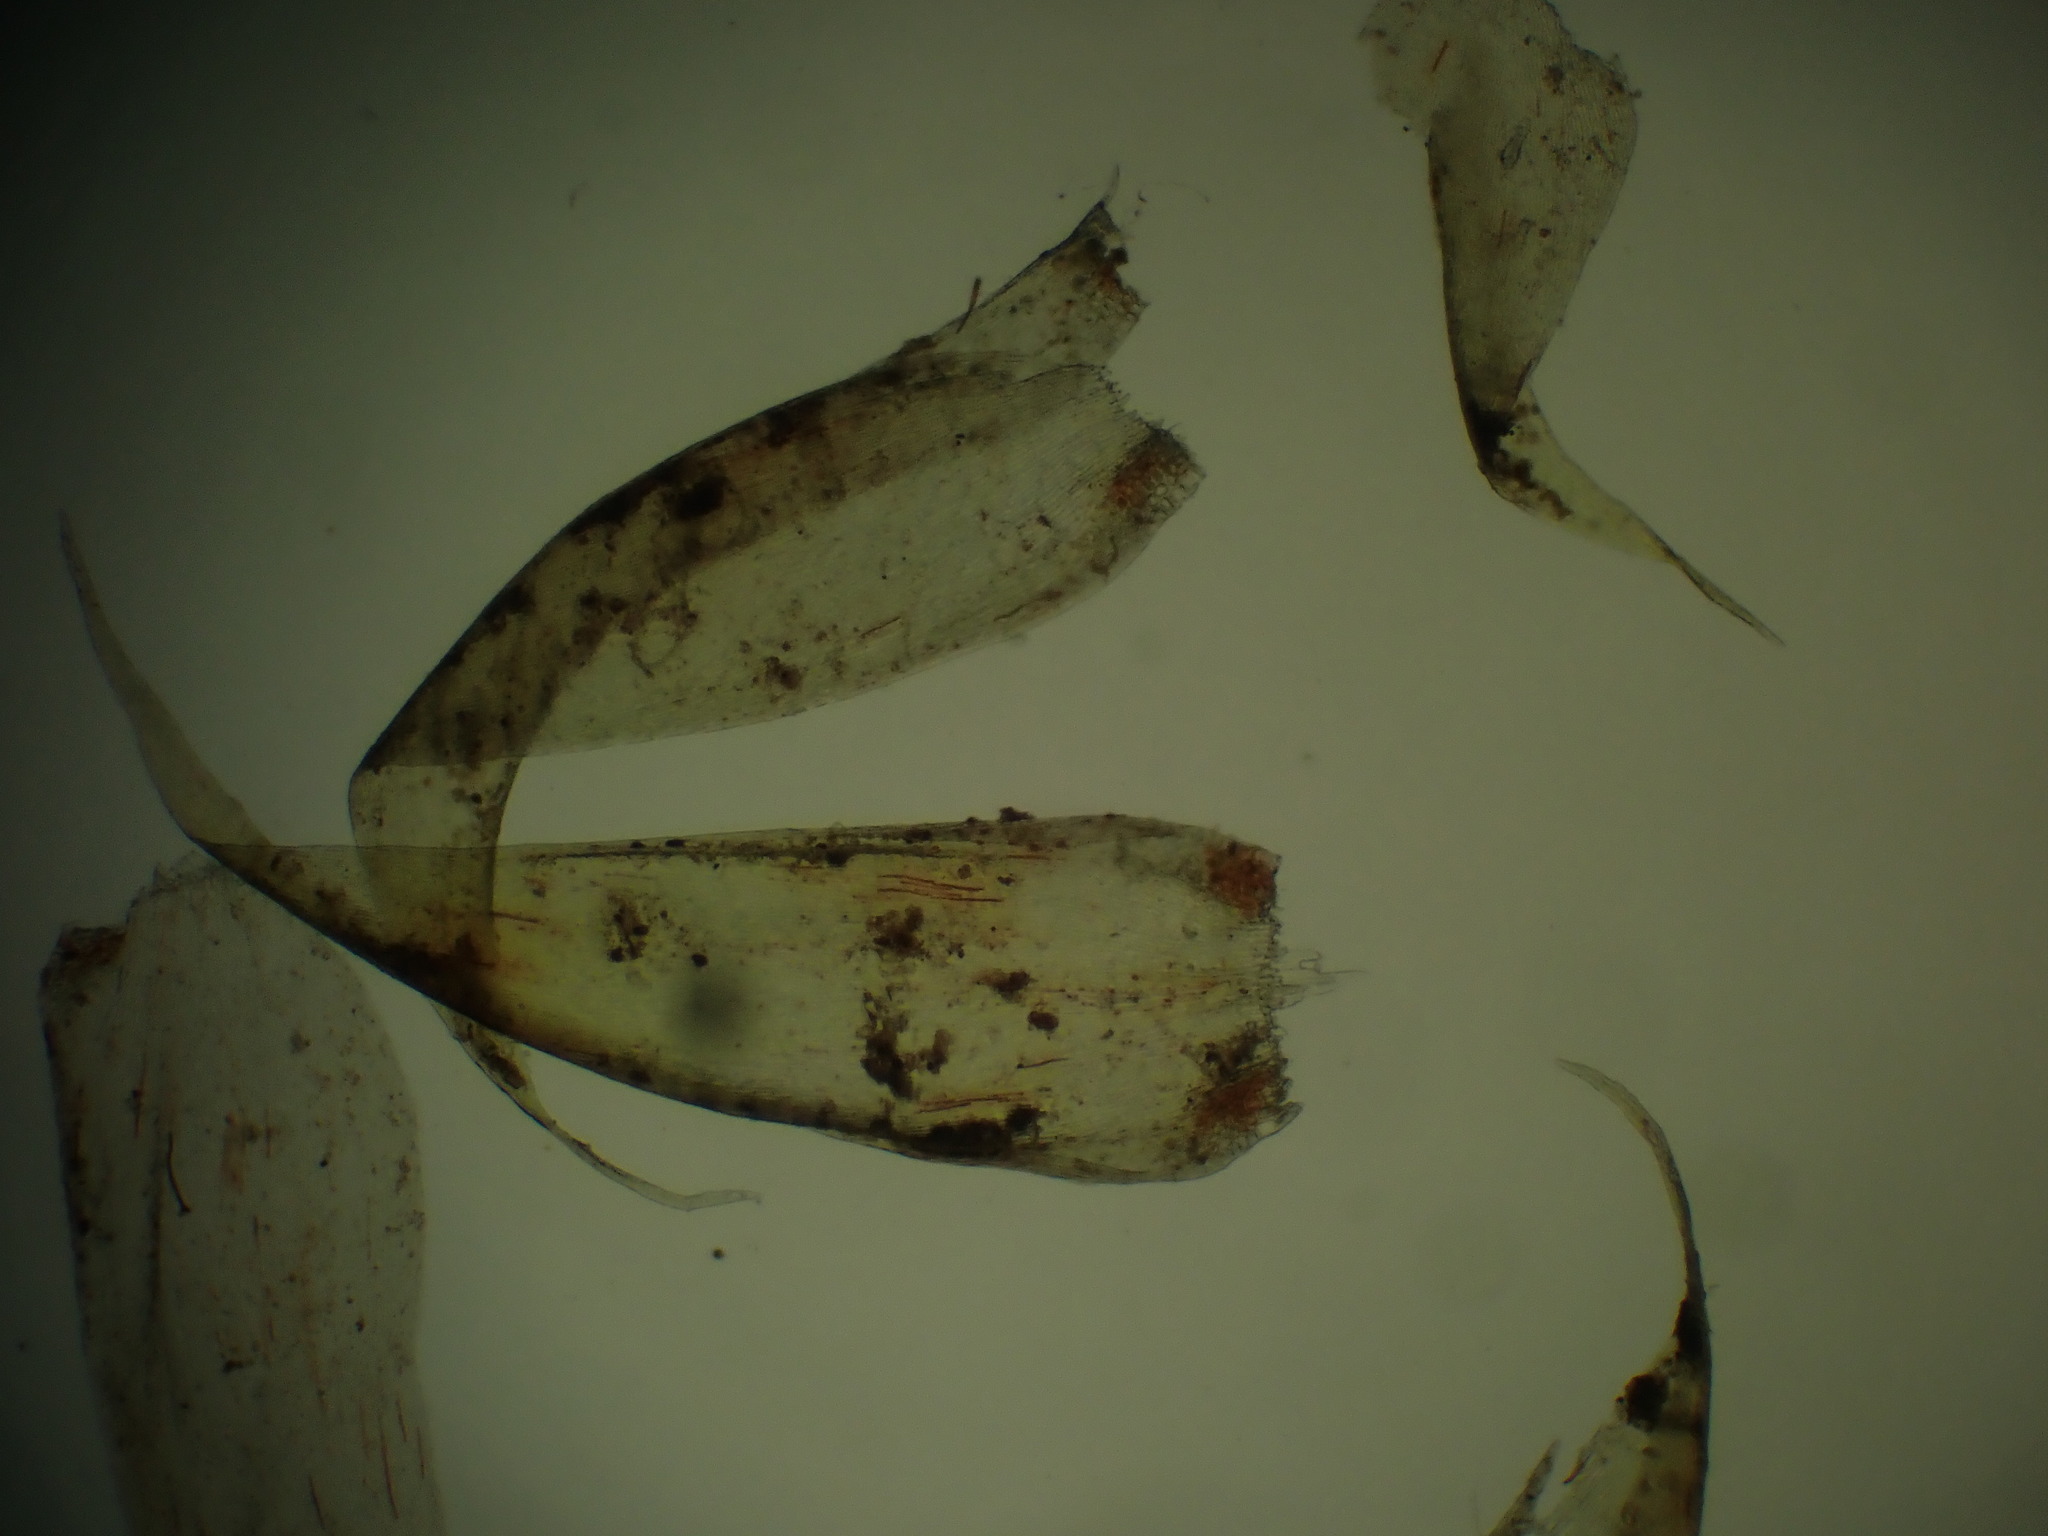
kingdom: Plantae
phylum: Bryophyta
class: Bryopsida
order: Hypnales
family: Hypnaceae
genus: Hypnum
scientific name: Hypnum cupressiforme
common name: Cypress-leaved plait-moss
